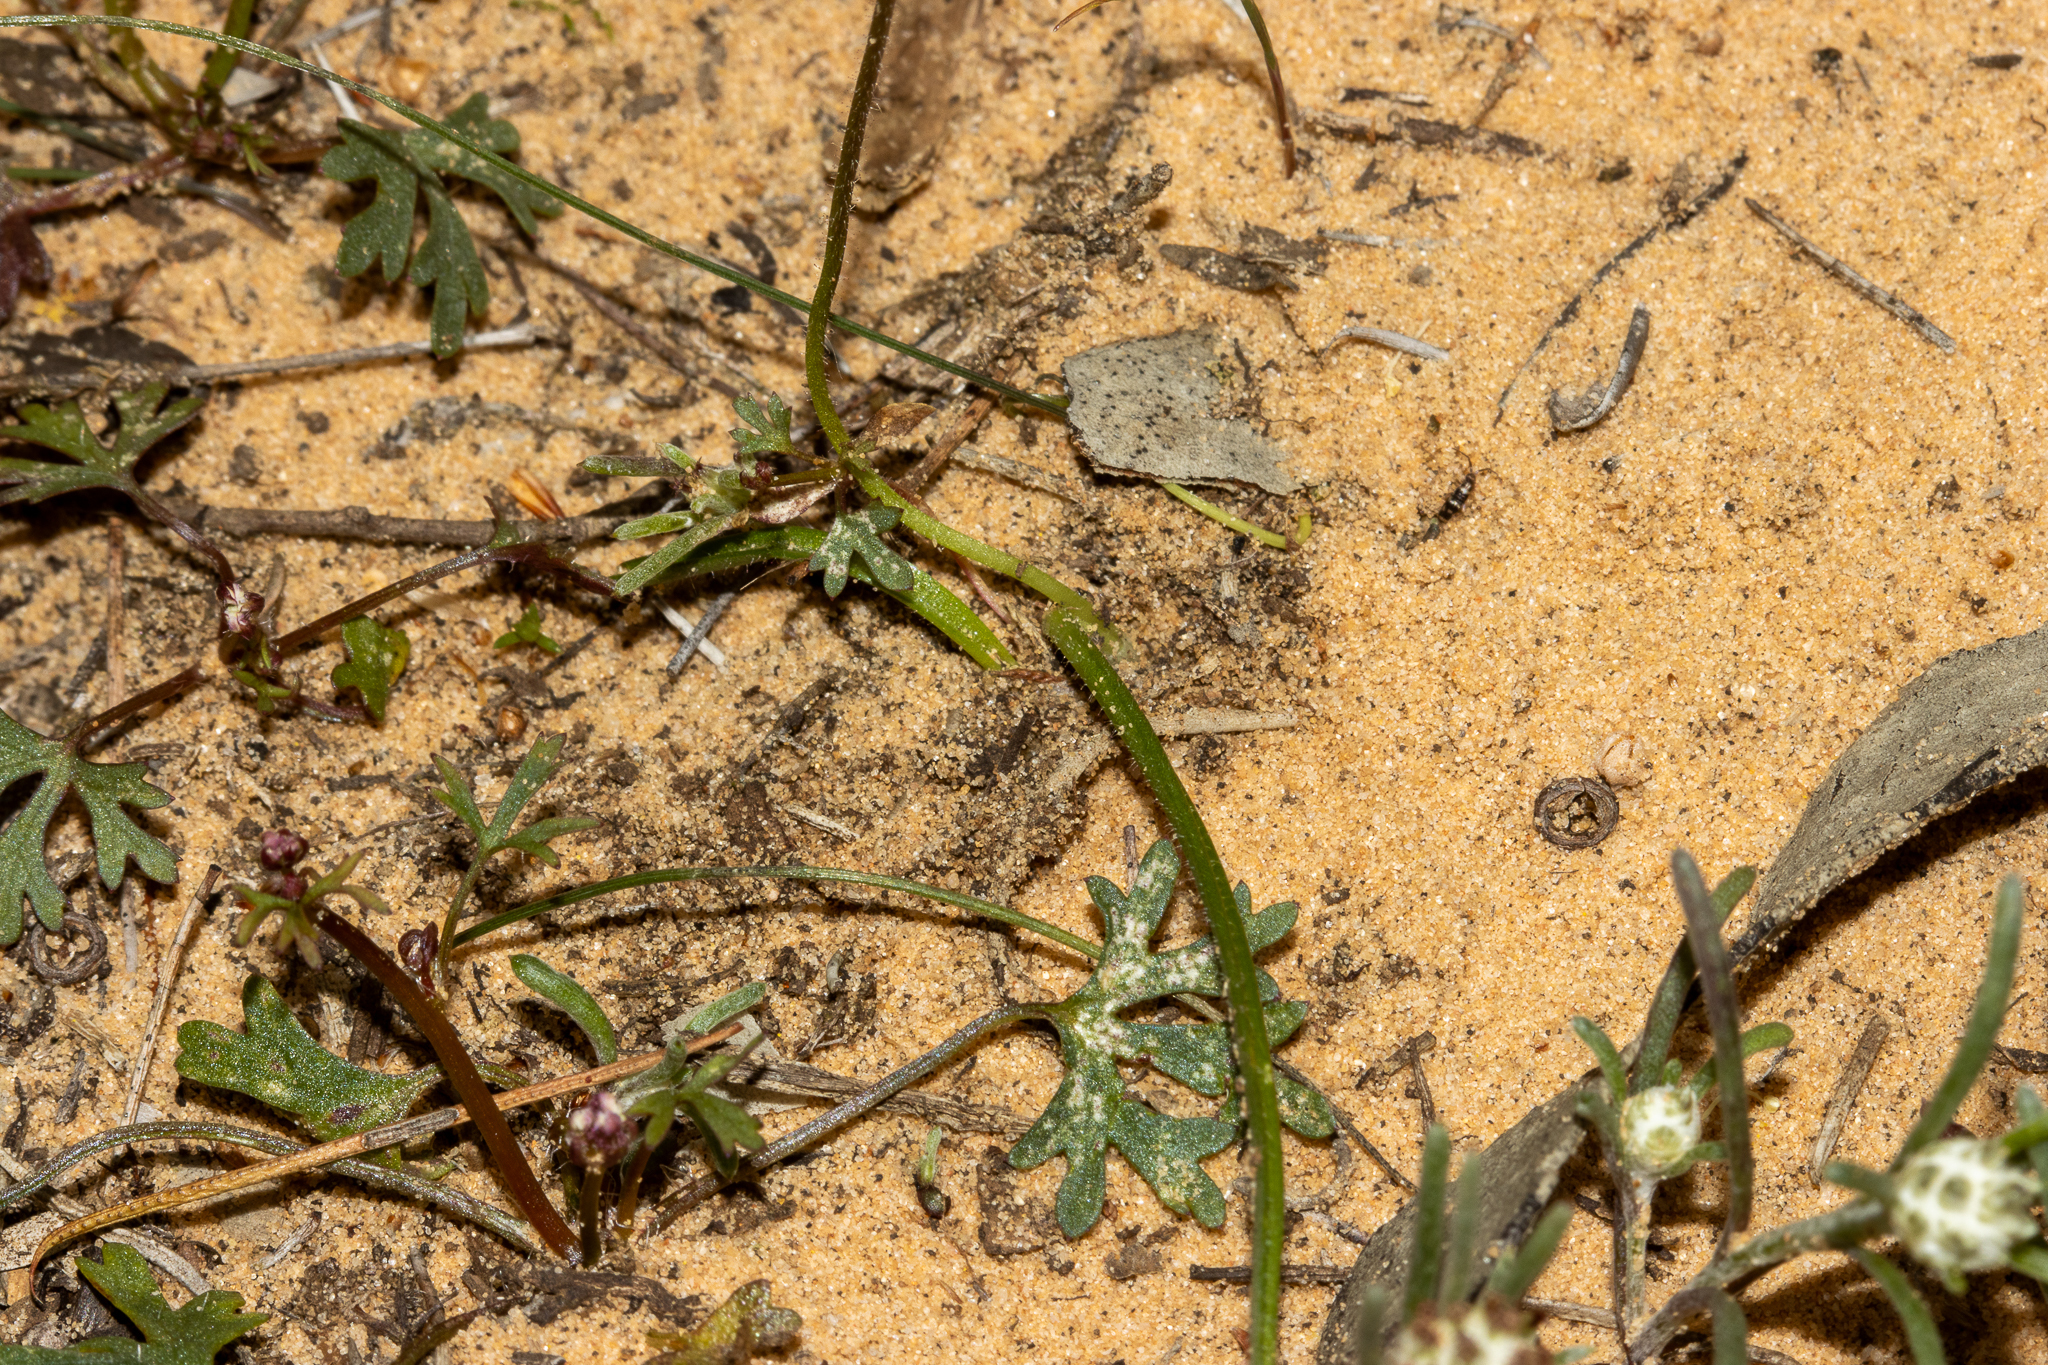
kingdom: Plantae
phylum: Tracheophyta
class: Liliopsida
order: Asparagales
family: Orchidaceae
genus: Caladenia
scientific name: Caladenia capillata
